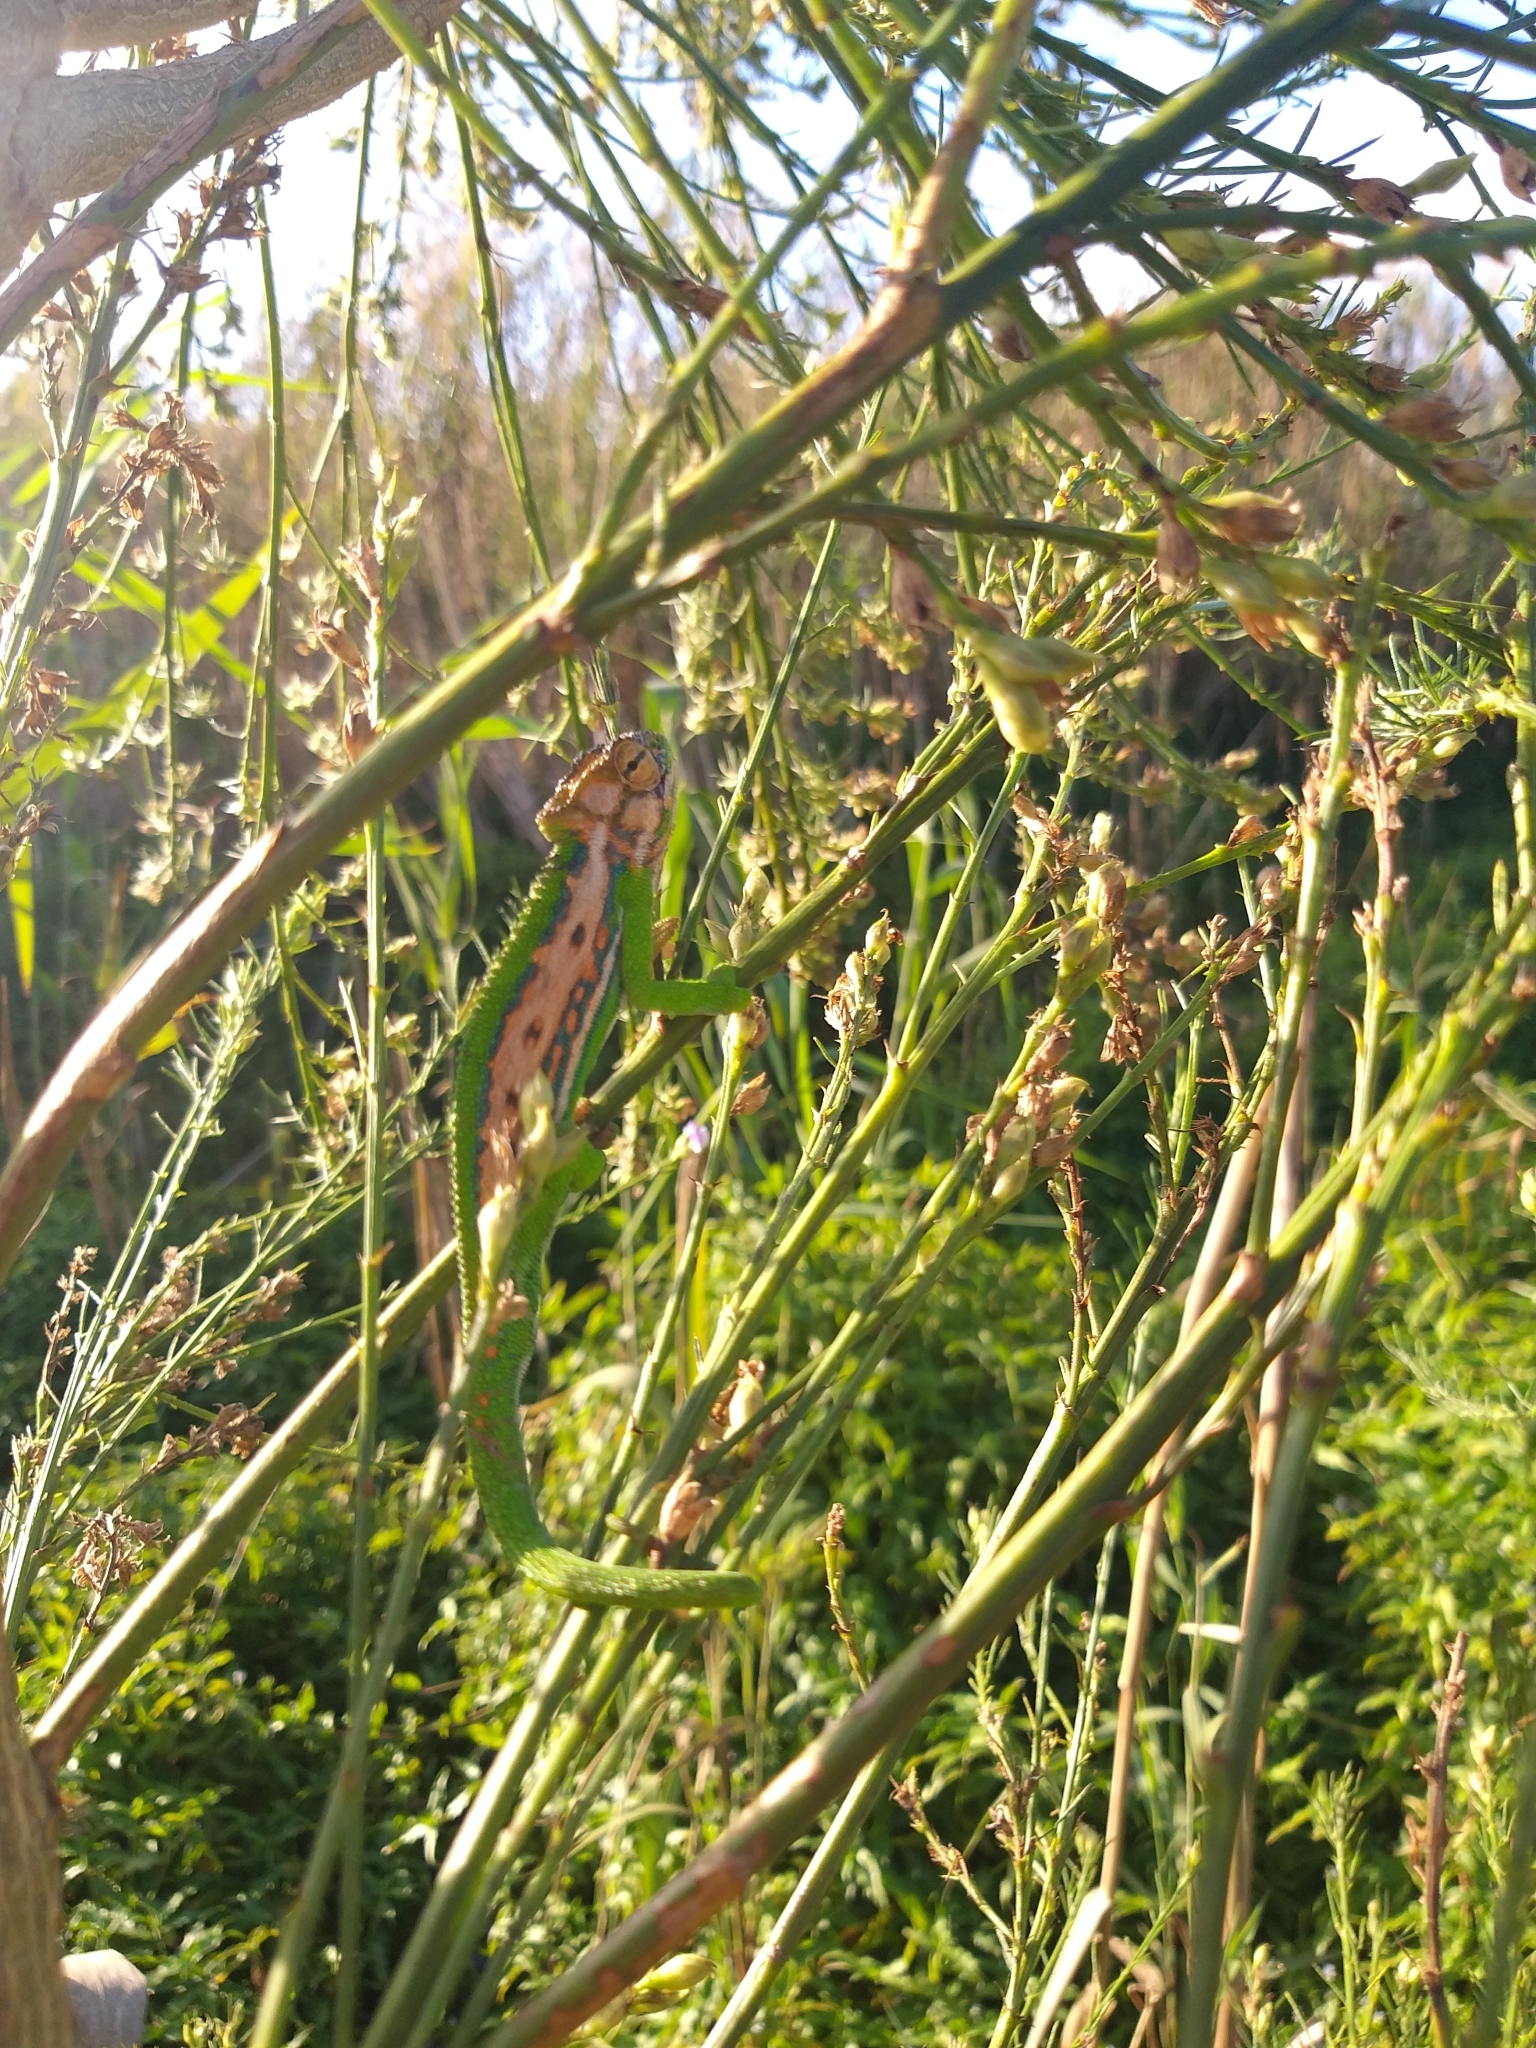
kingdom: Animalia
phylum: Chordata
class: Squamata
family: Chamaeleonidae
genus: Bradypodion
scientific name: Bradypodion pumilum
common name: Cape dwarf chameleon
